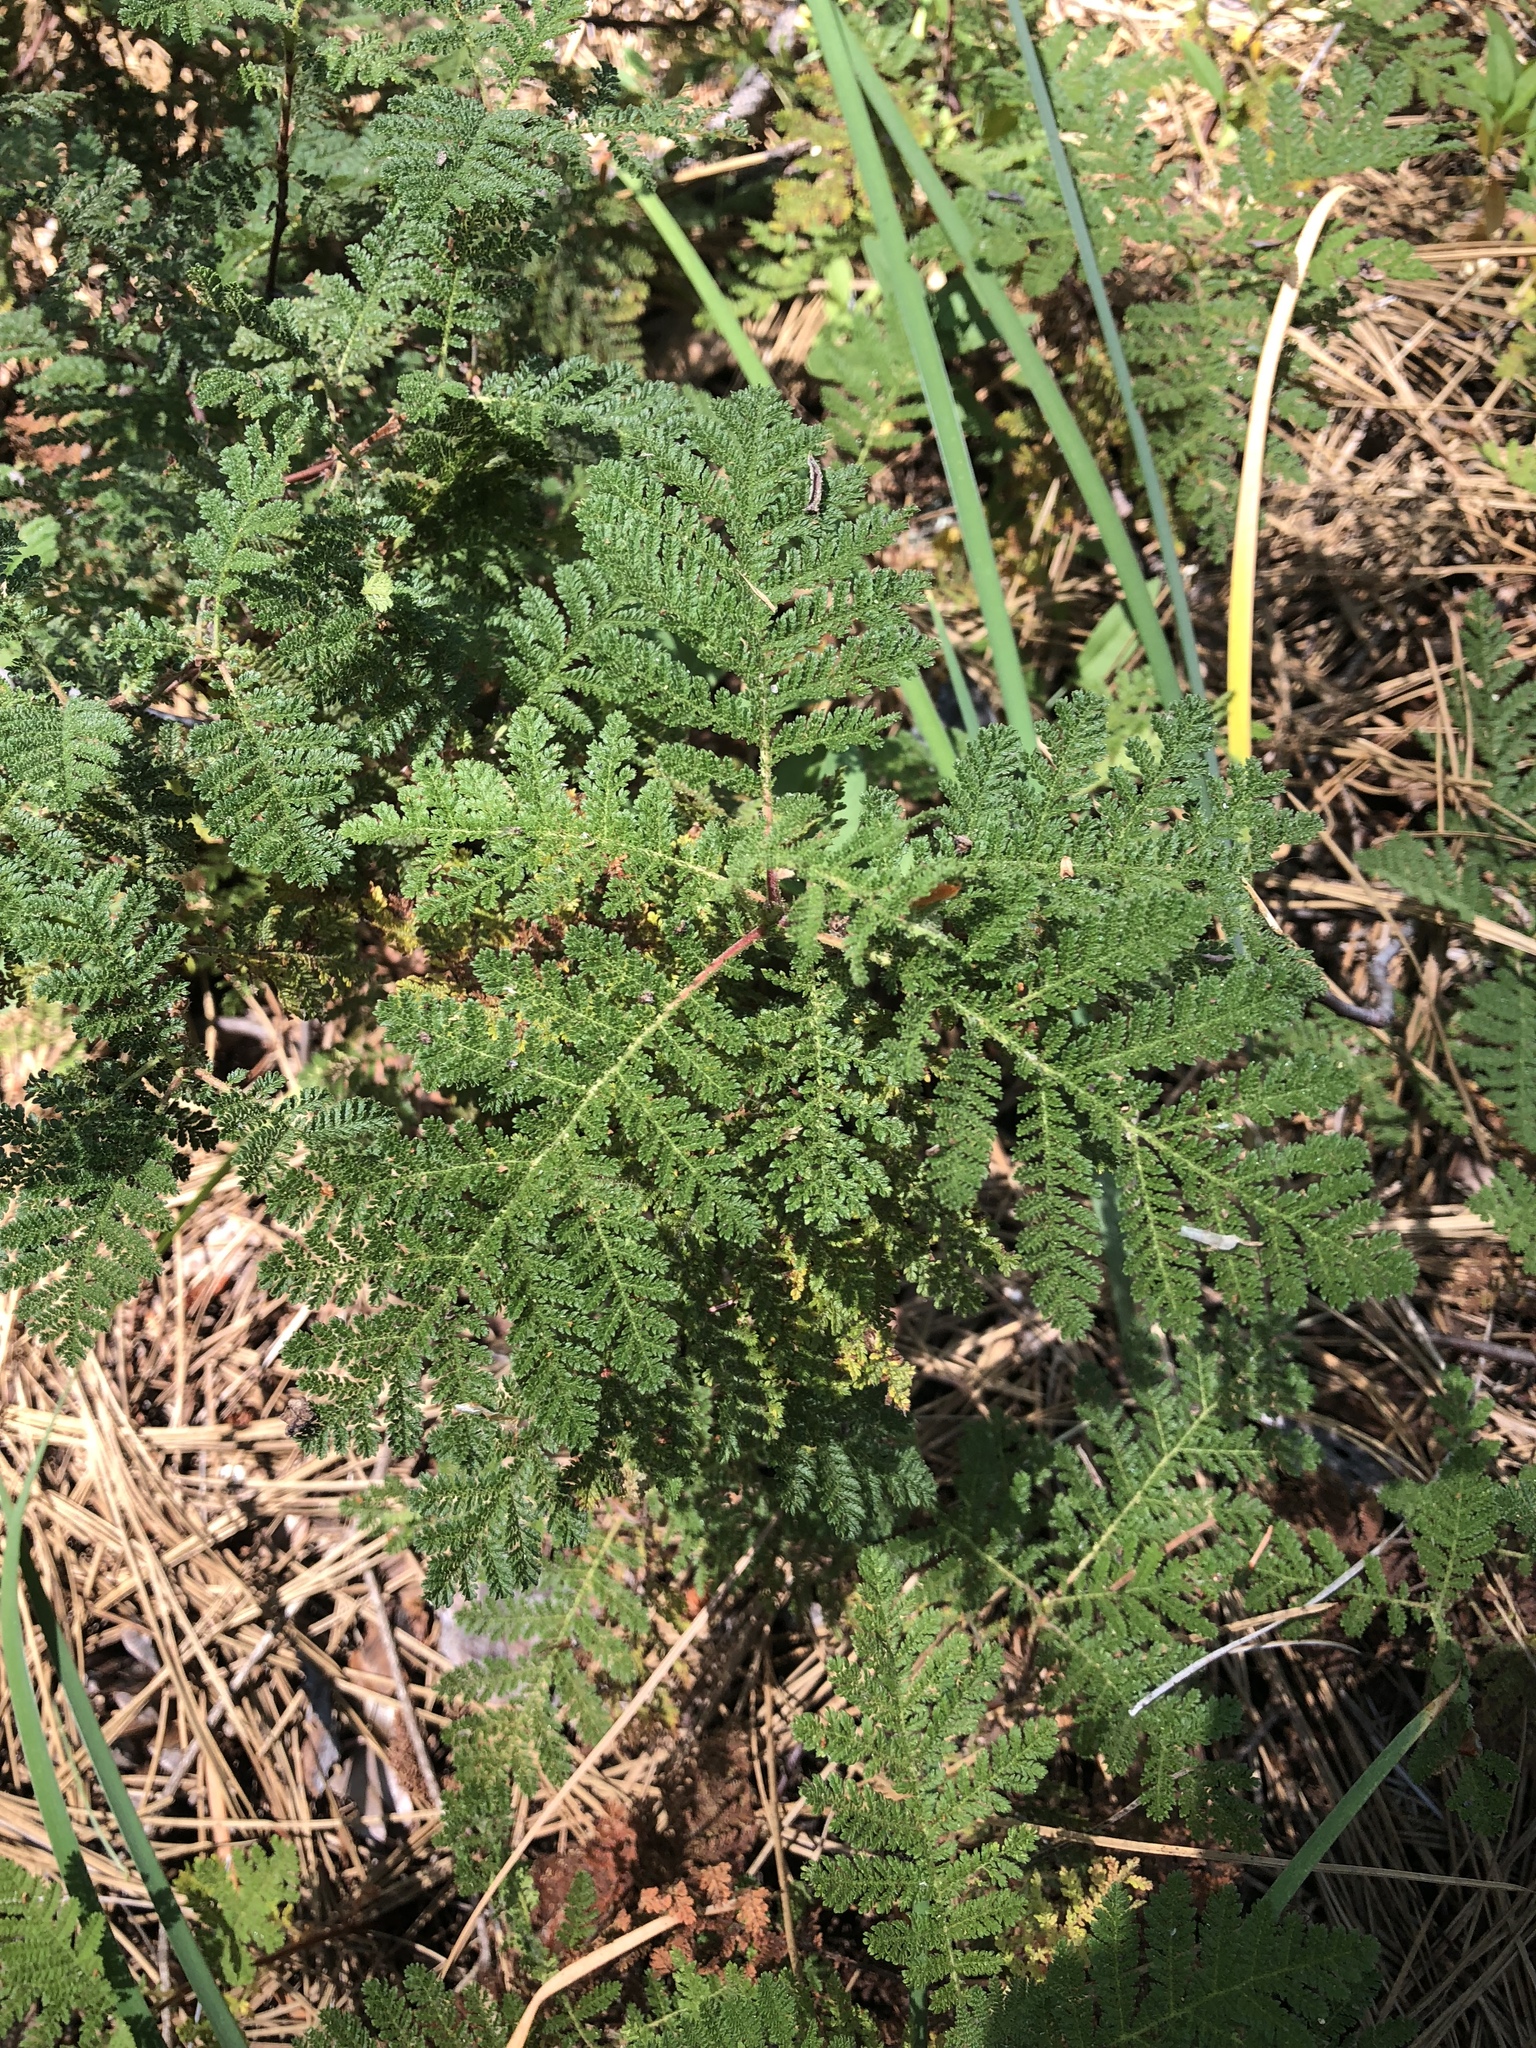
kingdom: Plantae
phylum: Tracheophyta
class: Magnoliopsida
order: Rosales
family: Rosaceae
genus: Chamaebatia
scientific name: Chamaebatia foliolosa
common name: Mountain misery
